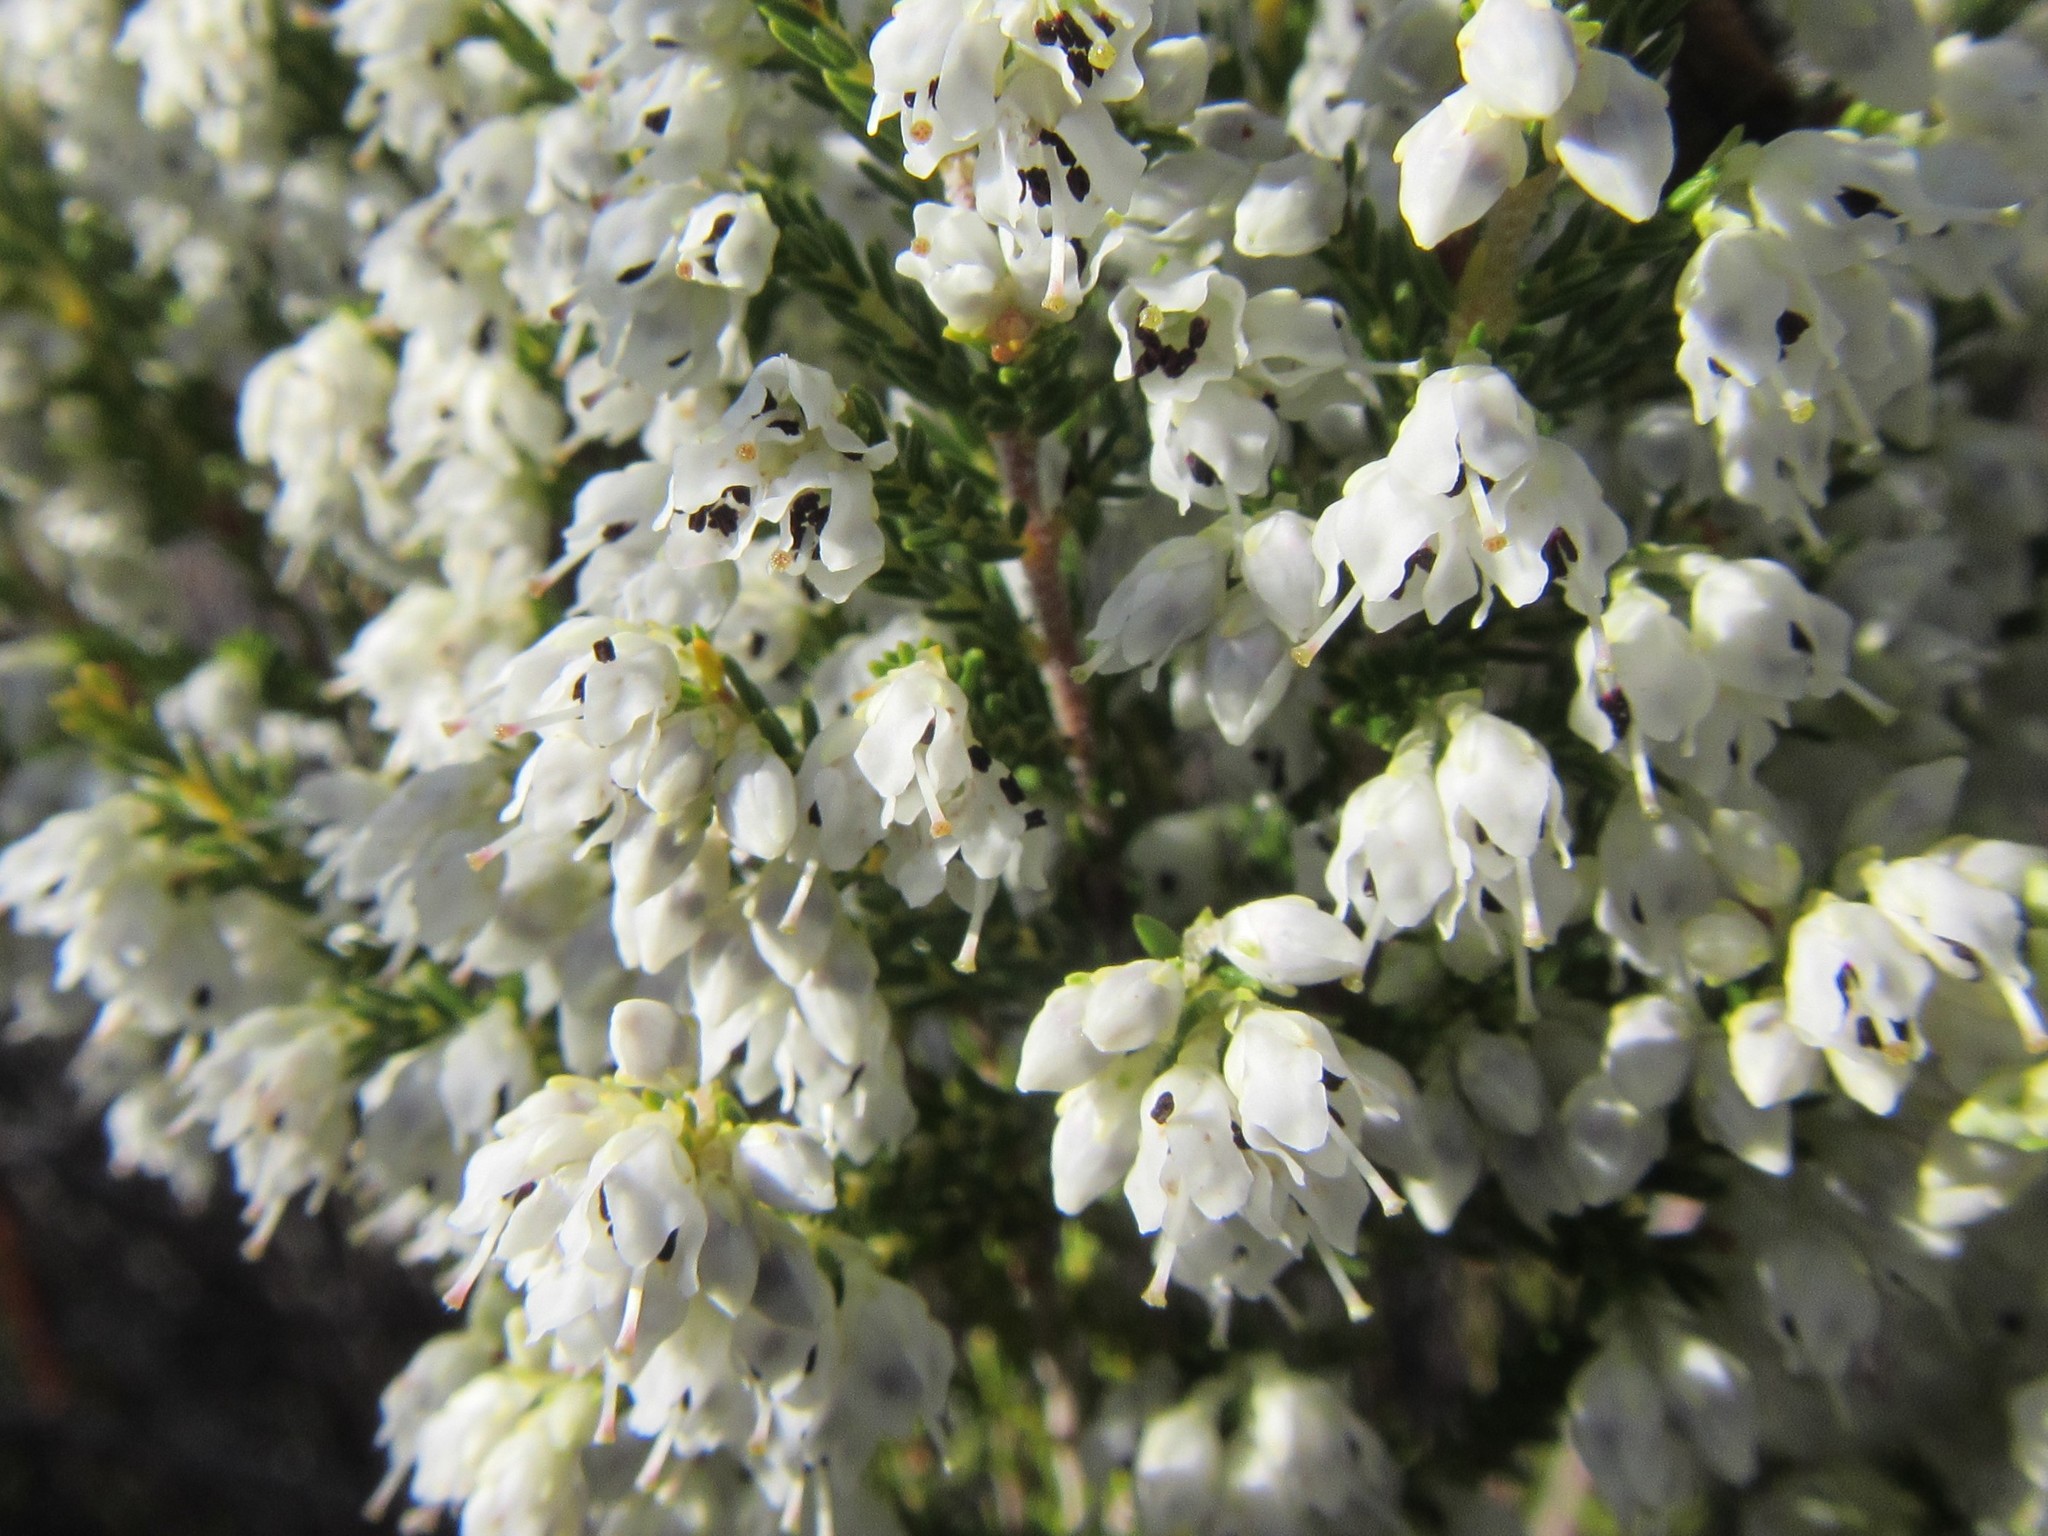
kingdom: Plantae
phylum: Tracheophyta
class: Magnoliopsida
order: Ericales
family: Ericaceae
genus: Erica
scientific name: Erica floccifera
